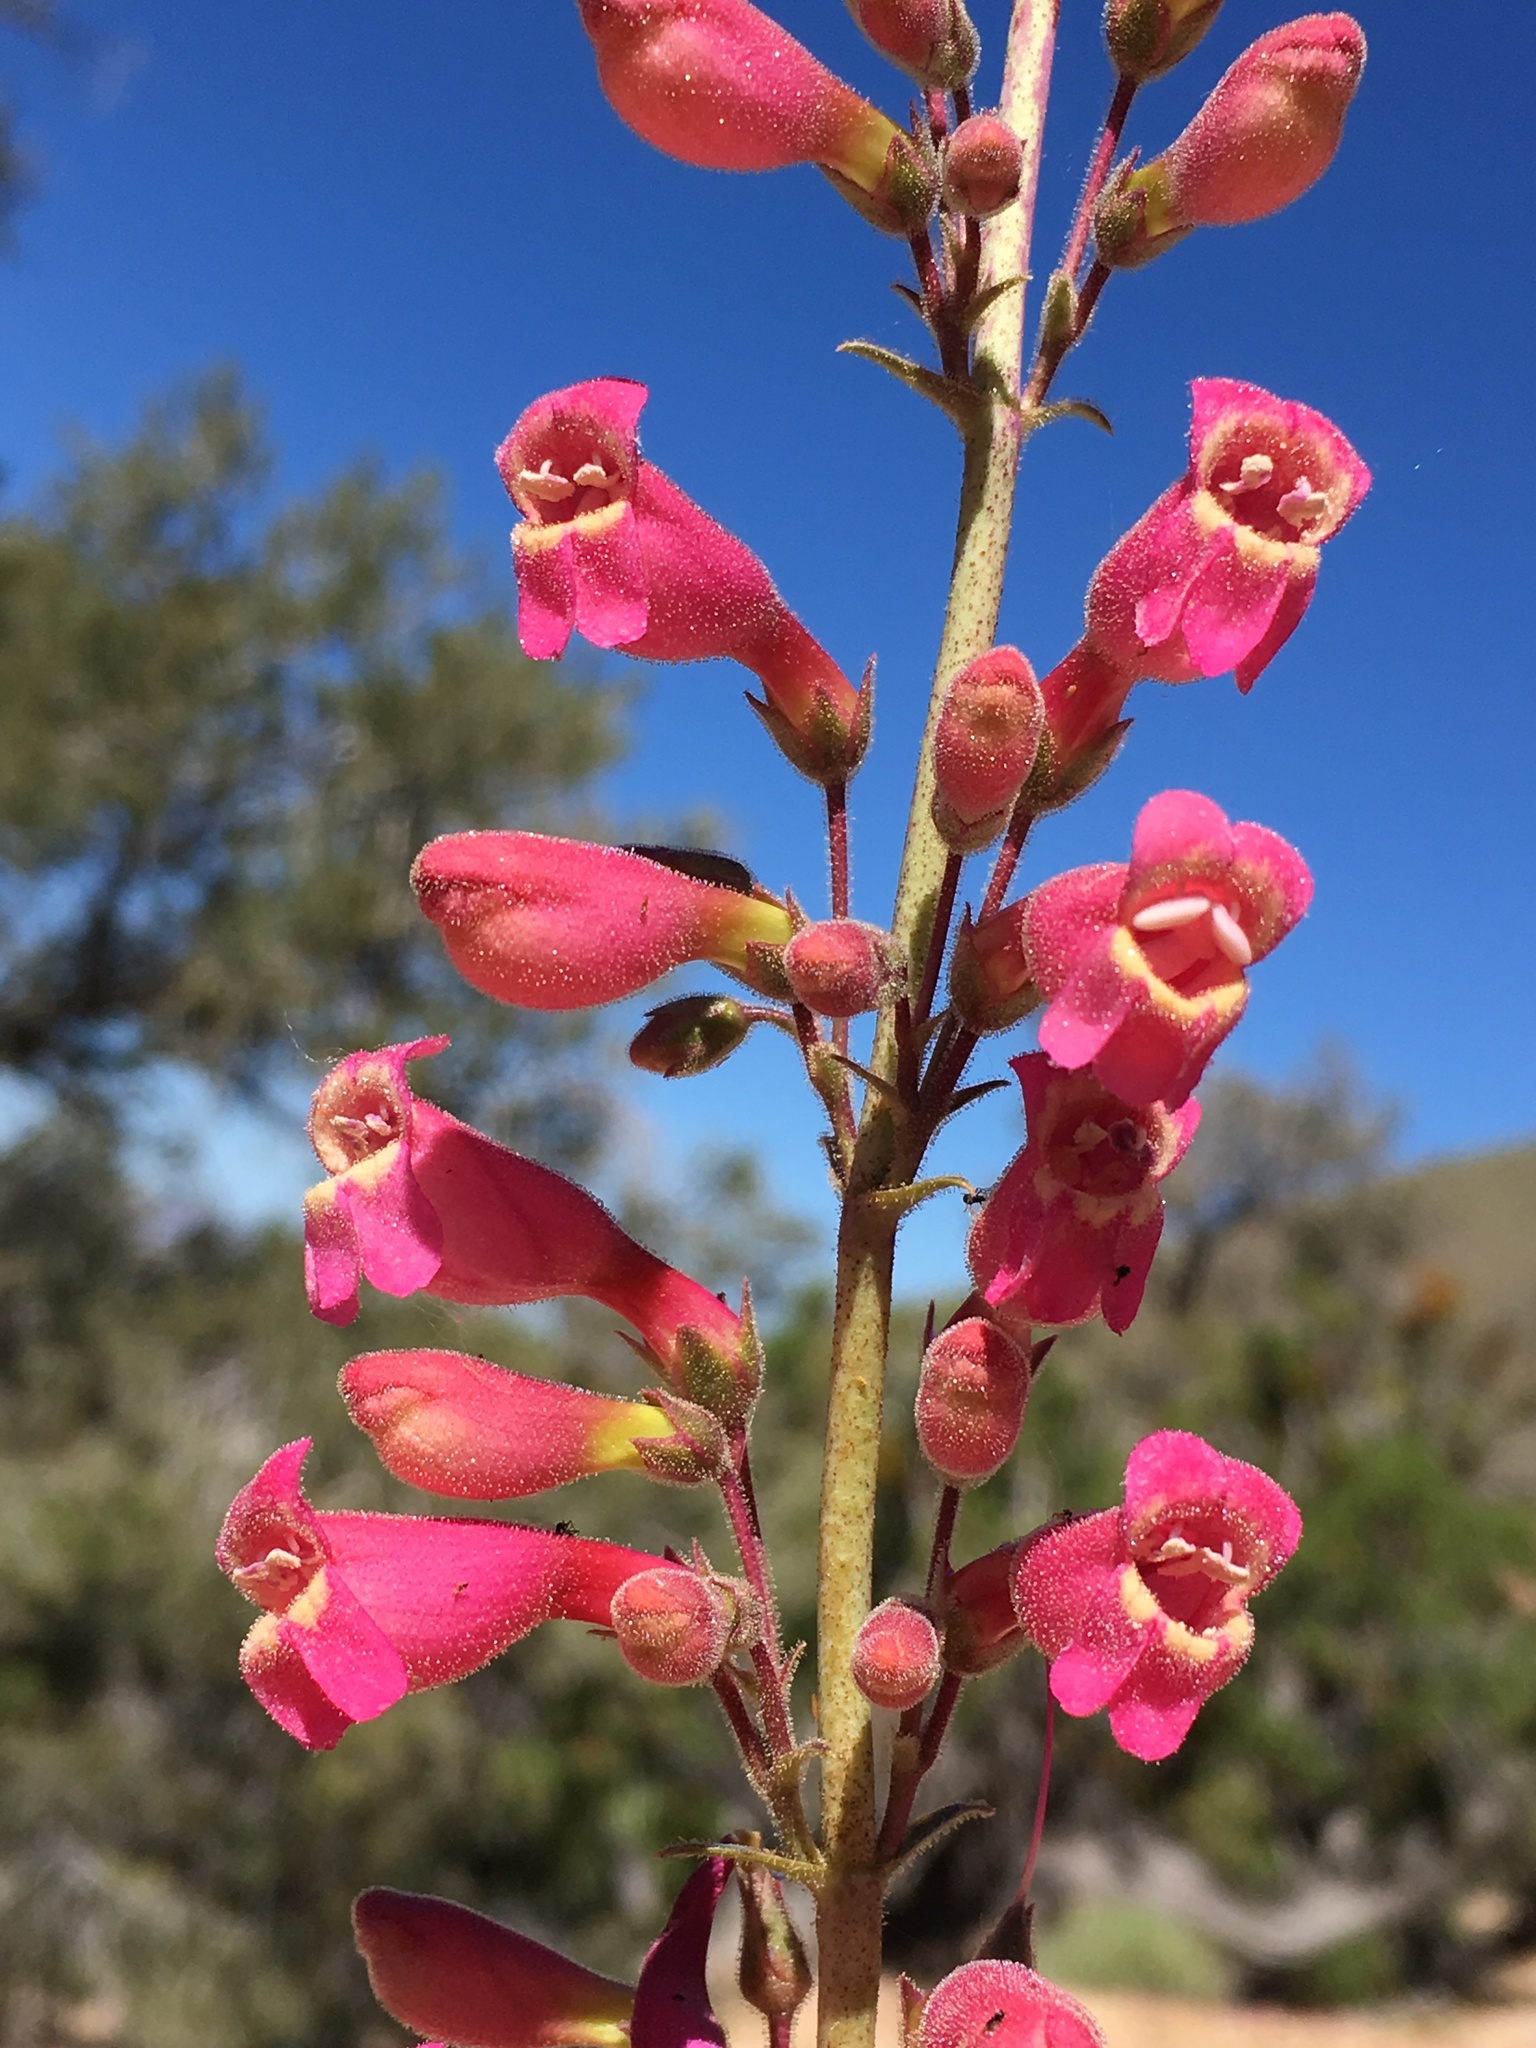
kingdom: Plantae
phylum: Tracheophyta
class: Magnoliopsida
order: Lamiales
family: Plantaginaceae
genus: Penstemon
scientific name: Penstemon floridus
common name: Panamint penstemon
